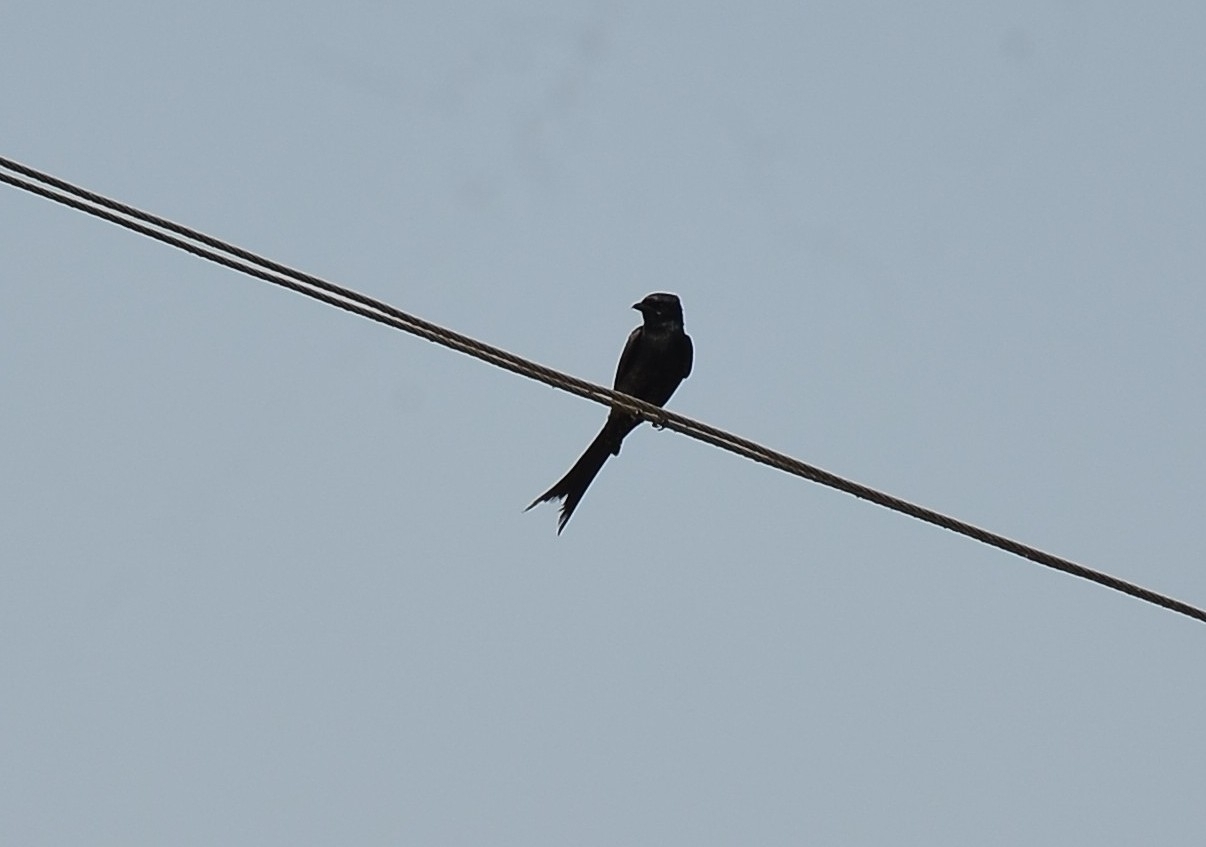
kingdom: Animalia
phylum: Chordata
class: Aves
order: Passeriformes
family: Dicruridae
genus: Dicrurus
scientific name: Dicrurus macrocercus
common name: Black drongo
